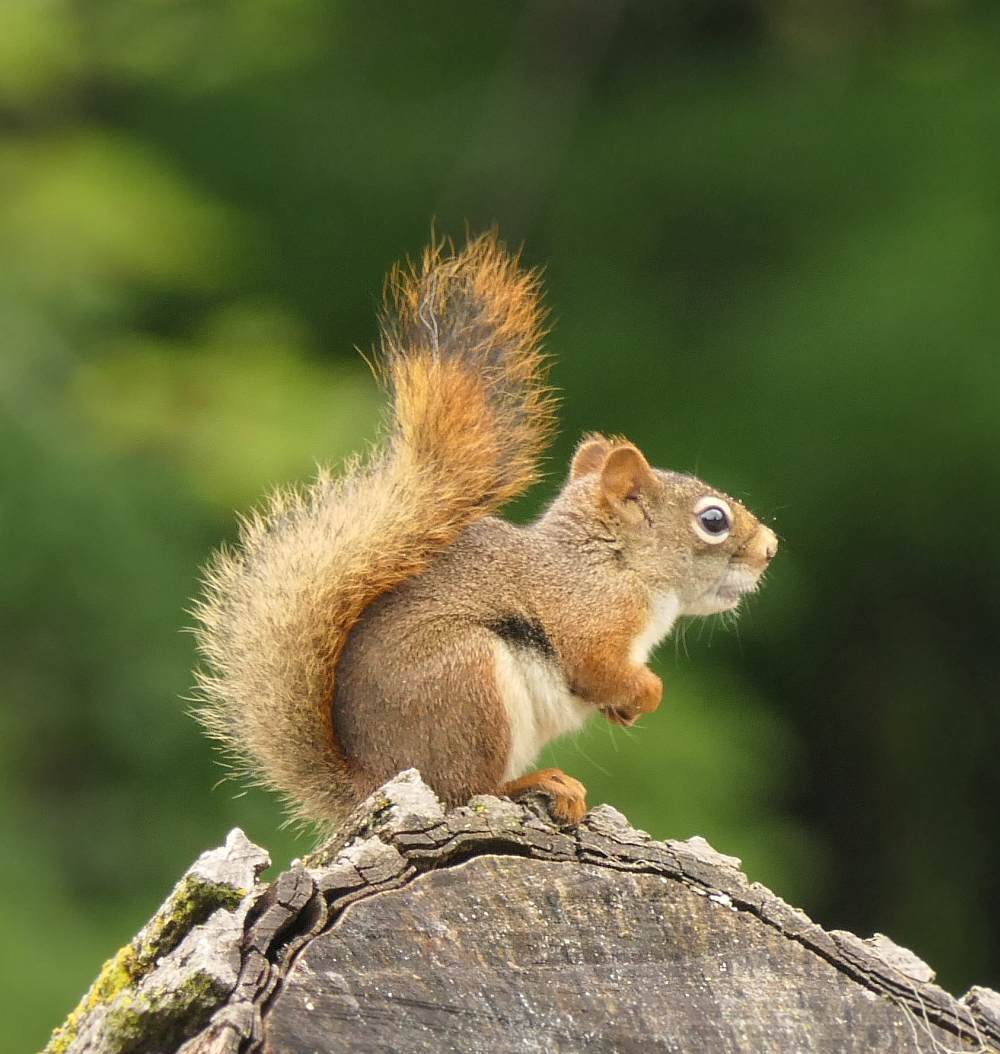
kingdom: Animalia
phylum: Chordata
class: Mammalia
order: Rodentia
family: Sciuridae
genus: Tamiasciurus
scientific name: Tamiasciurus hudsonicus
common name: Red squirrel
